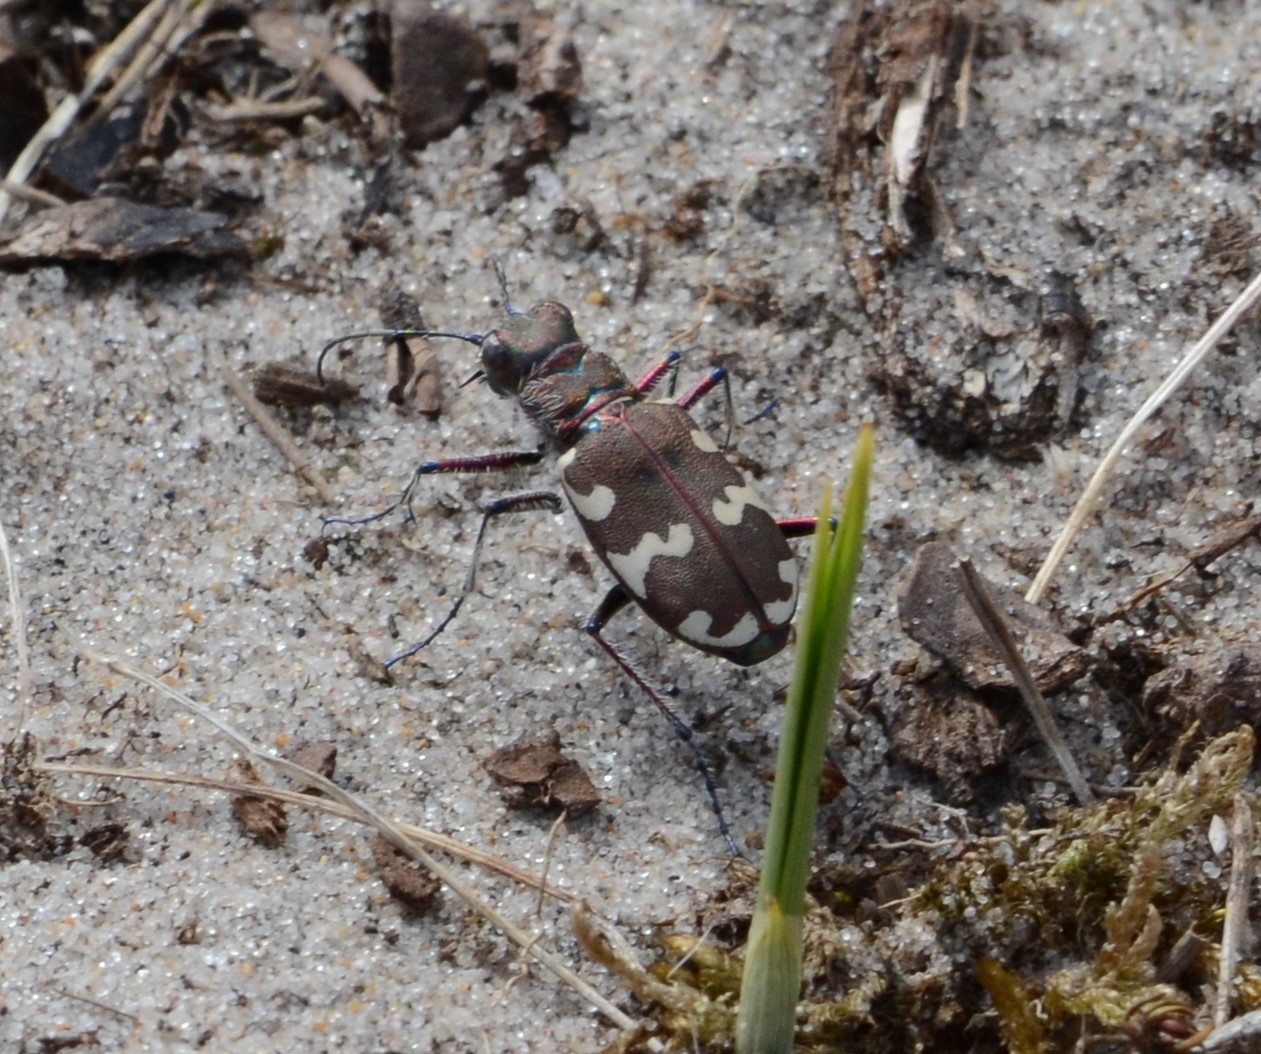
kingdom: Animalia
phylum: Arthropoda
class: Insecta
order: Coleoptera
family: Carabidae
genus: Cicindela
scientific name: Cicindela hybrida
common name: Northern dune tiger beetle
